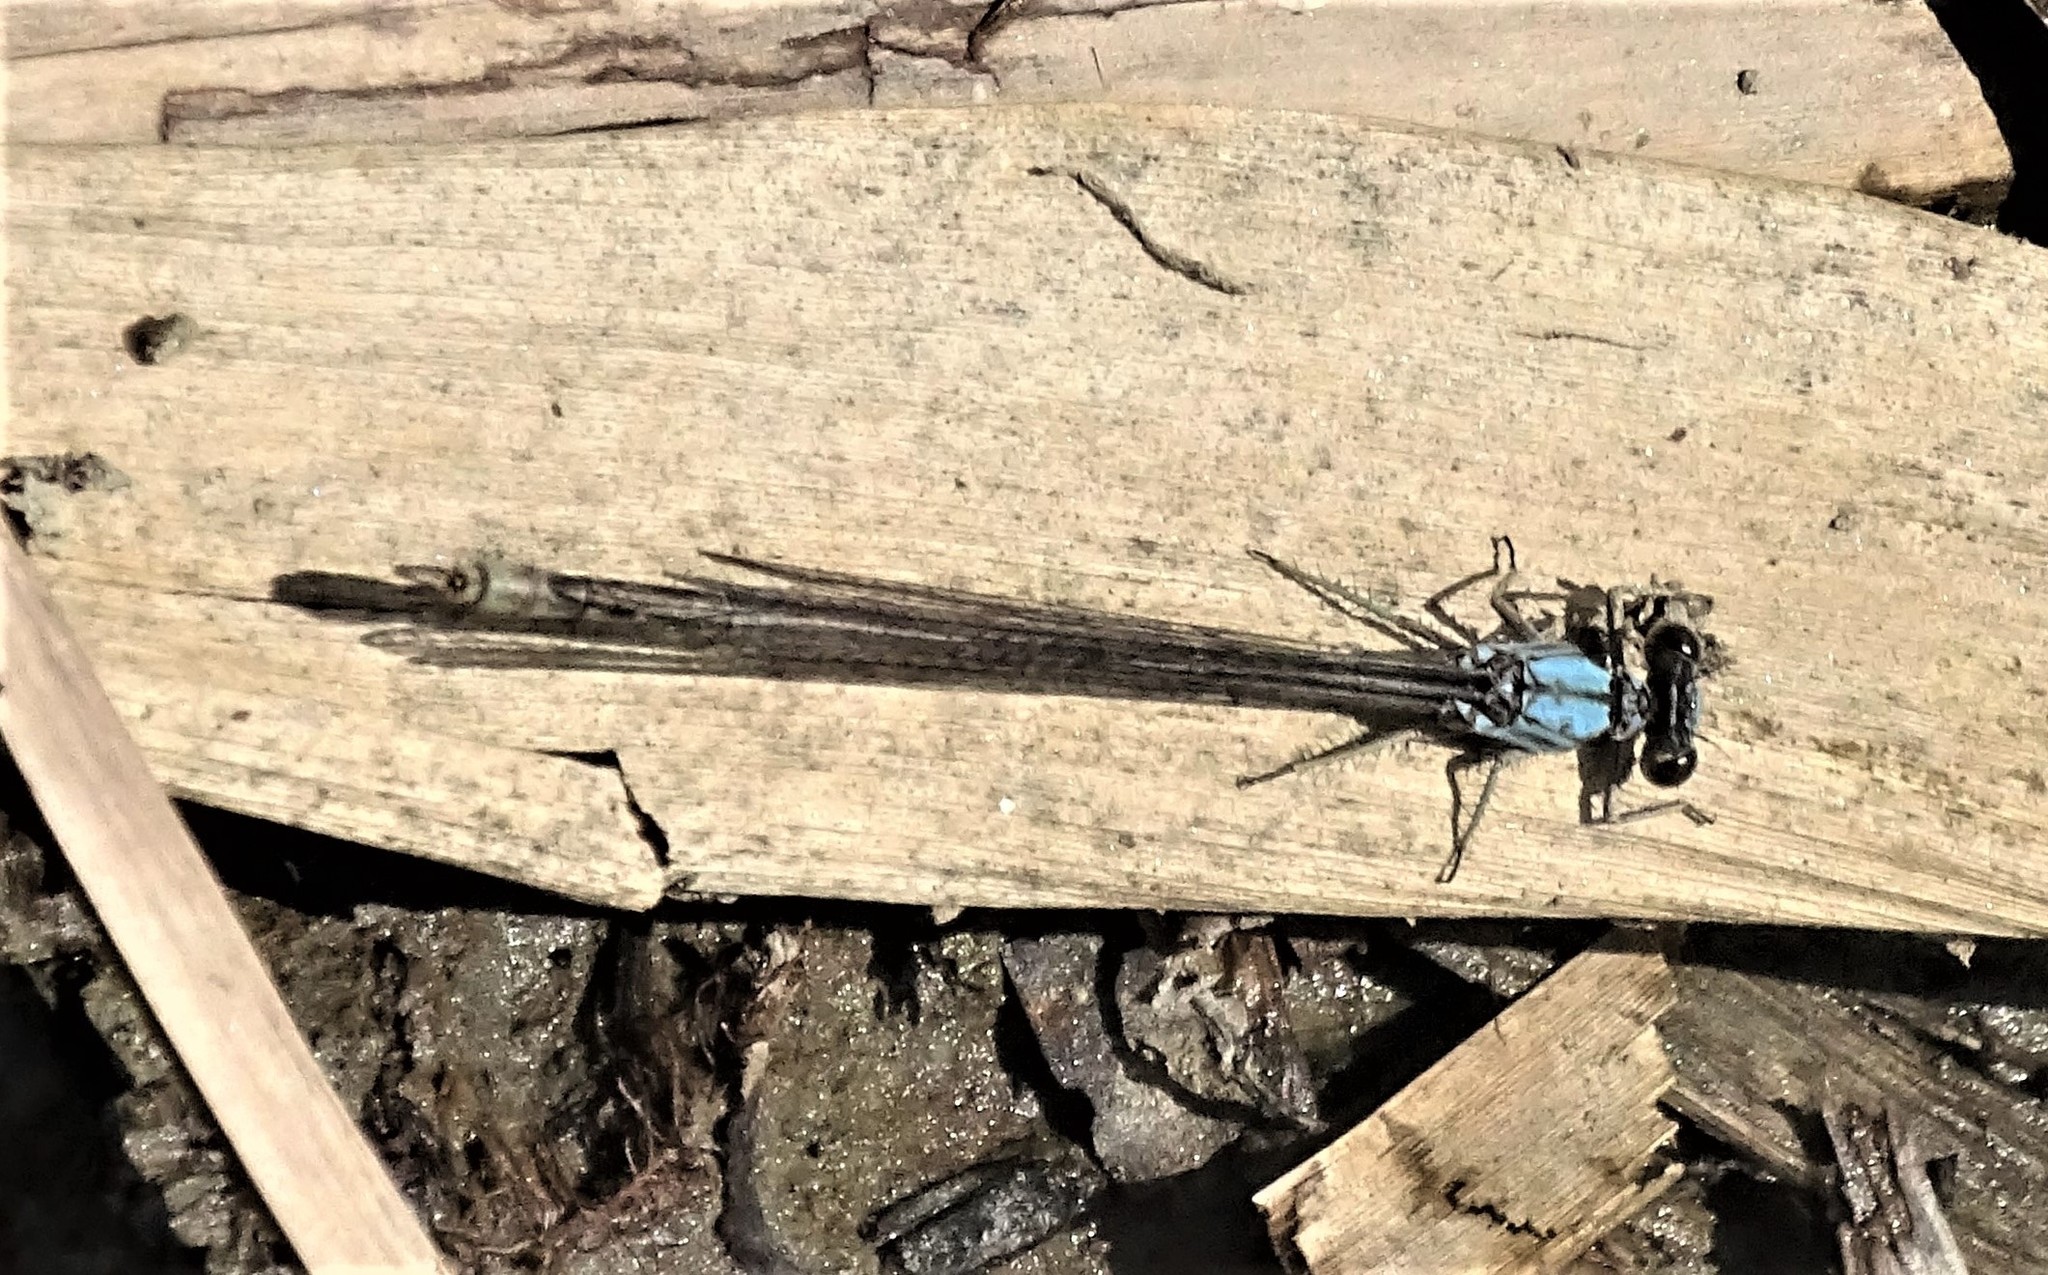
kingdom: Animalia
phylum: Arthropoda
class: Insecta
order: Odonata
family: Coenagrionidae
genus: Argia
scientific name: Argia moesta
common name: Powdered dancer
